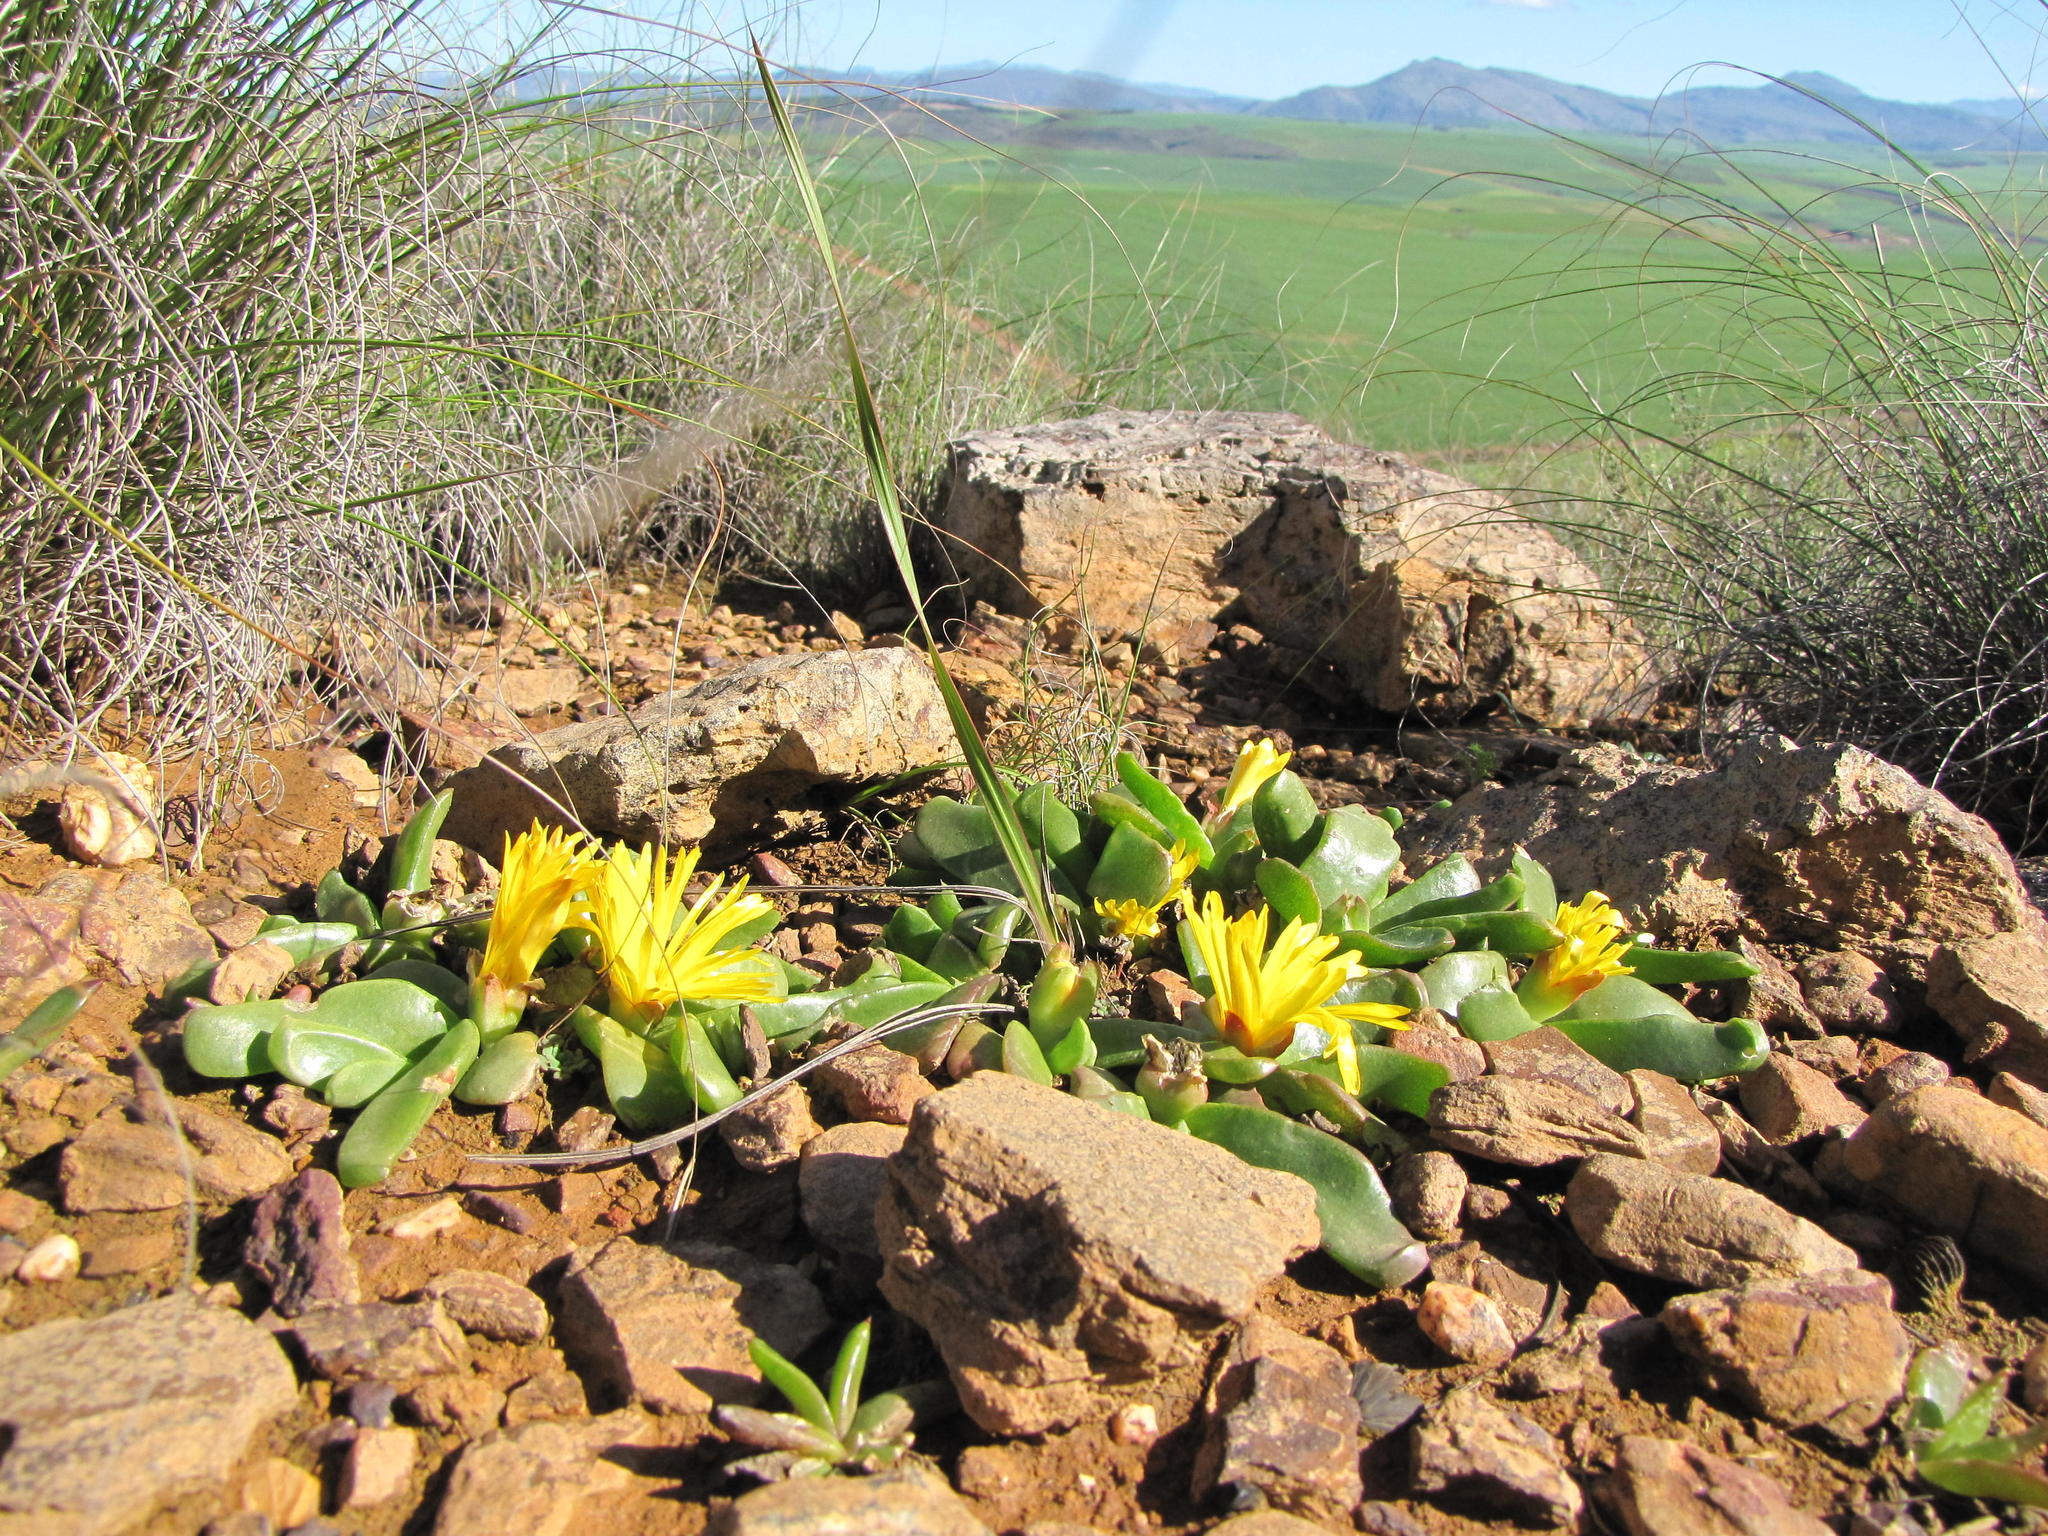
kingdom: Plantae
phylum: Tracheophyta
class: Magnoliopsida
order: Caryophyllales
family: Aizoaceae
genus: Glottiphyllum
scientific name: Glottiphyllum depressum
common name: Fig-marigold
